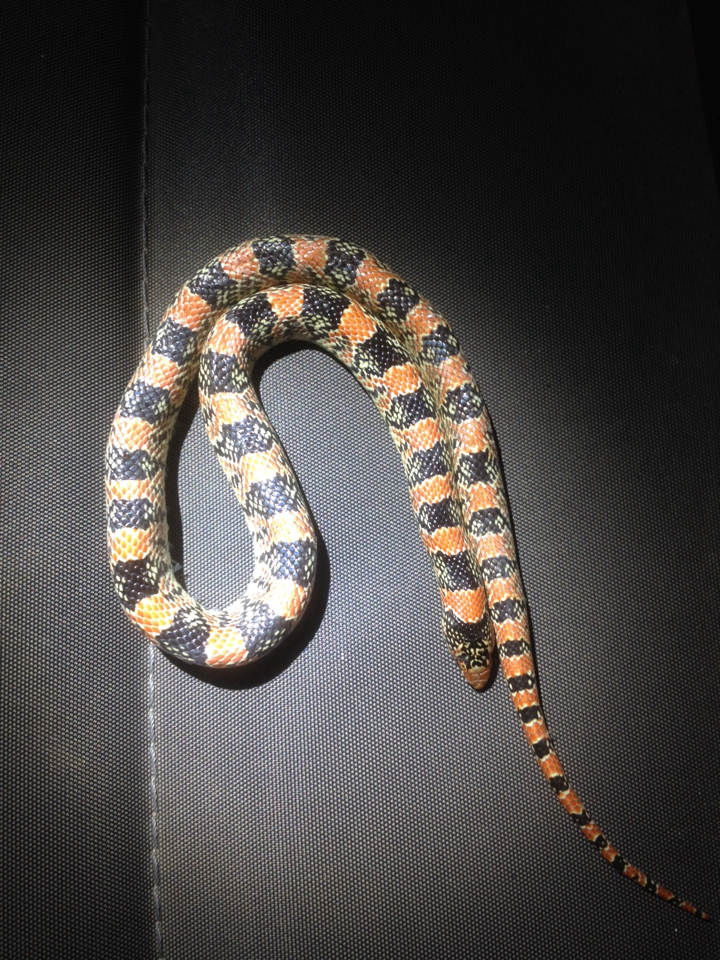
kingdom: Animalia
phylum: Chordata
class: Squamata
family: Colubridae
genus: Rhinocheilus
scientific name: Rhinocheilus lecontei
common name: Longnose snake
